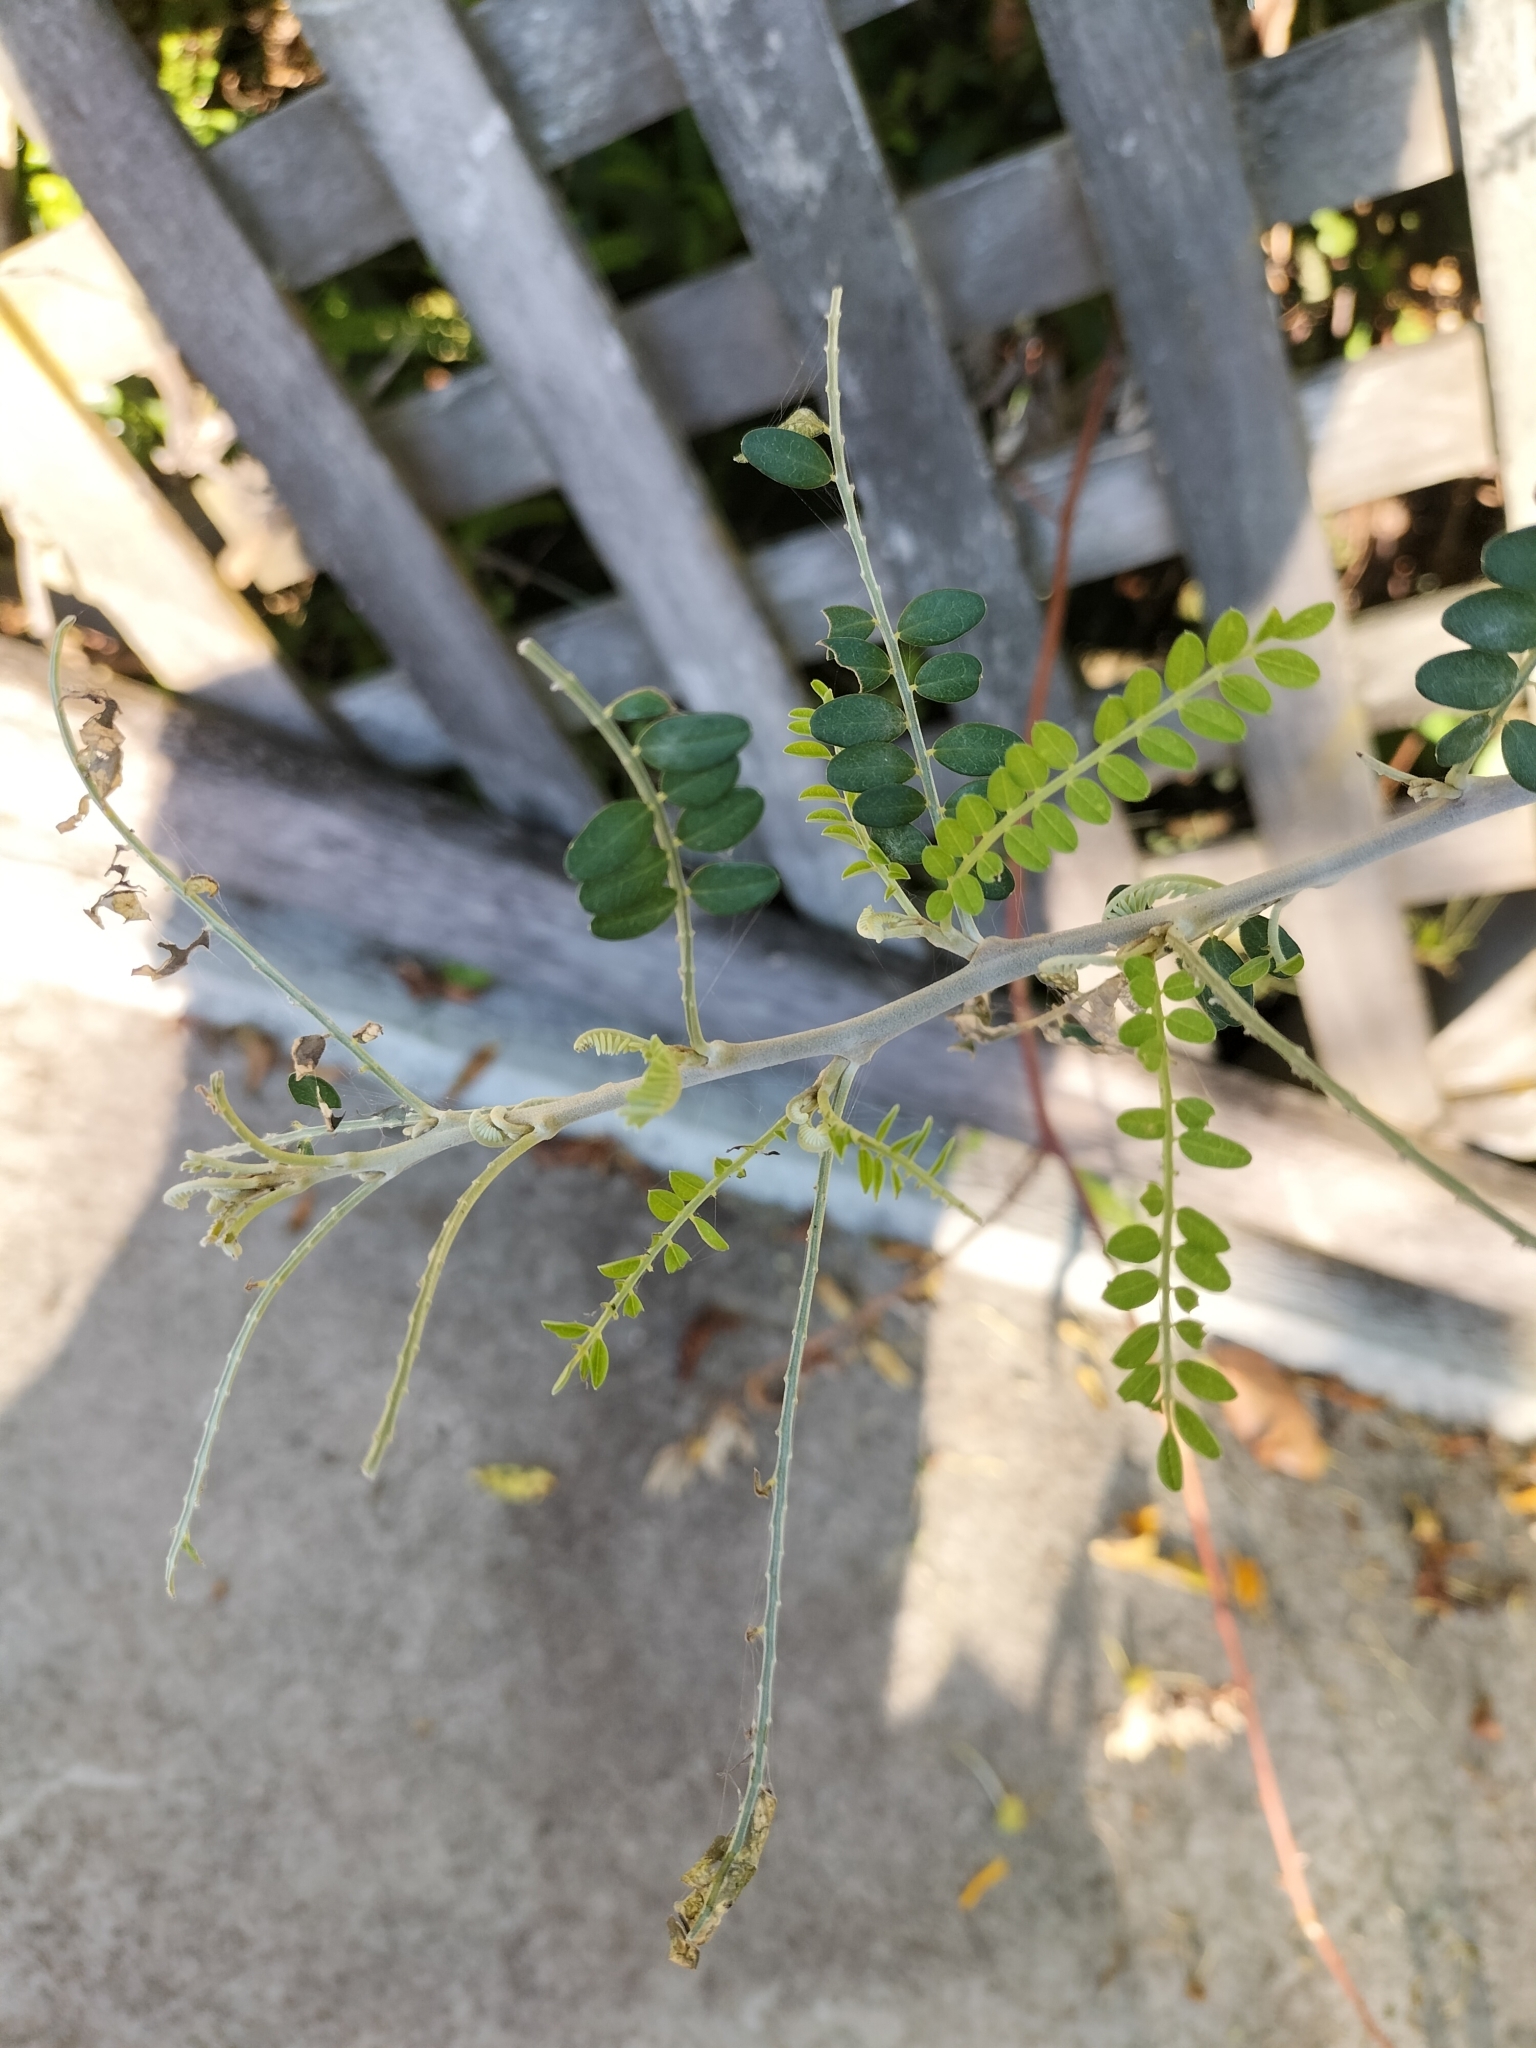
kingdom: Animalia
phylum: Arthropoda
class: Insecta
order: Lepidoptera
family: Crambidae
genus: Uresiphita
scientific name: Uresiphita
